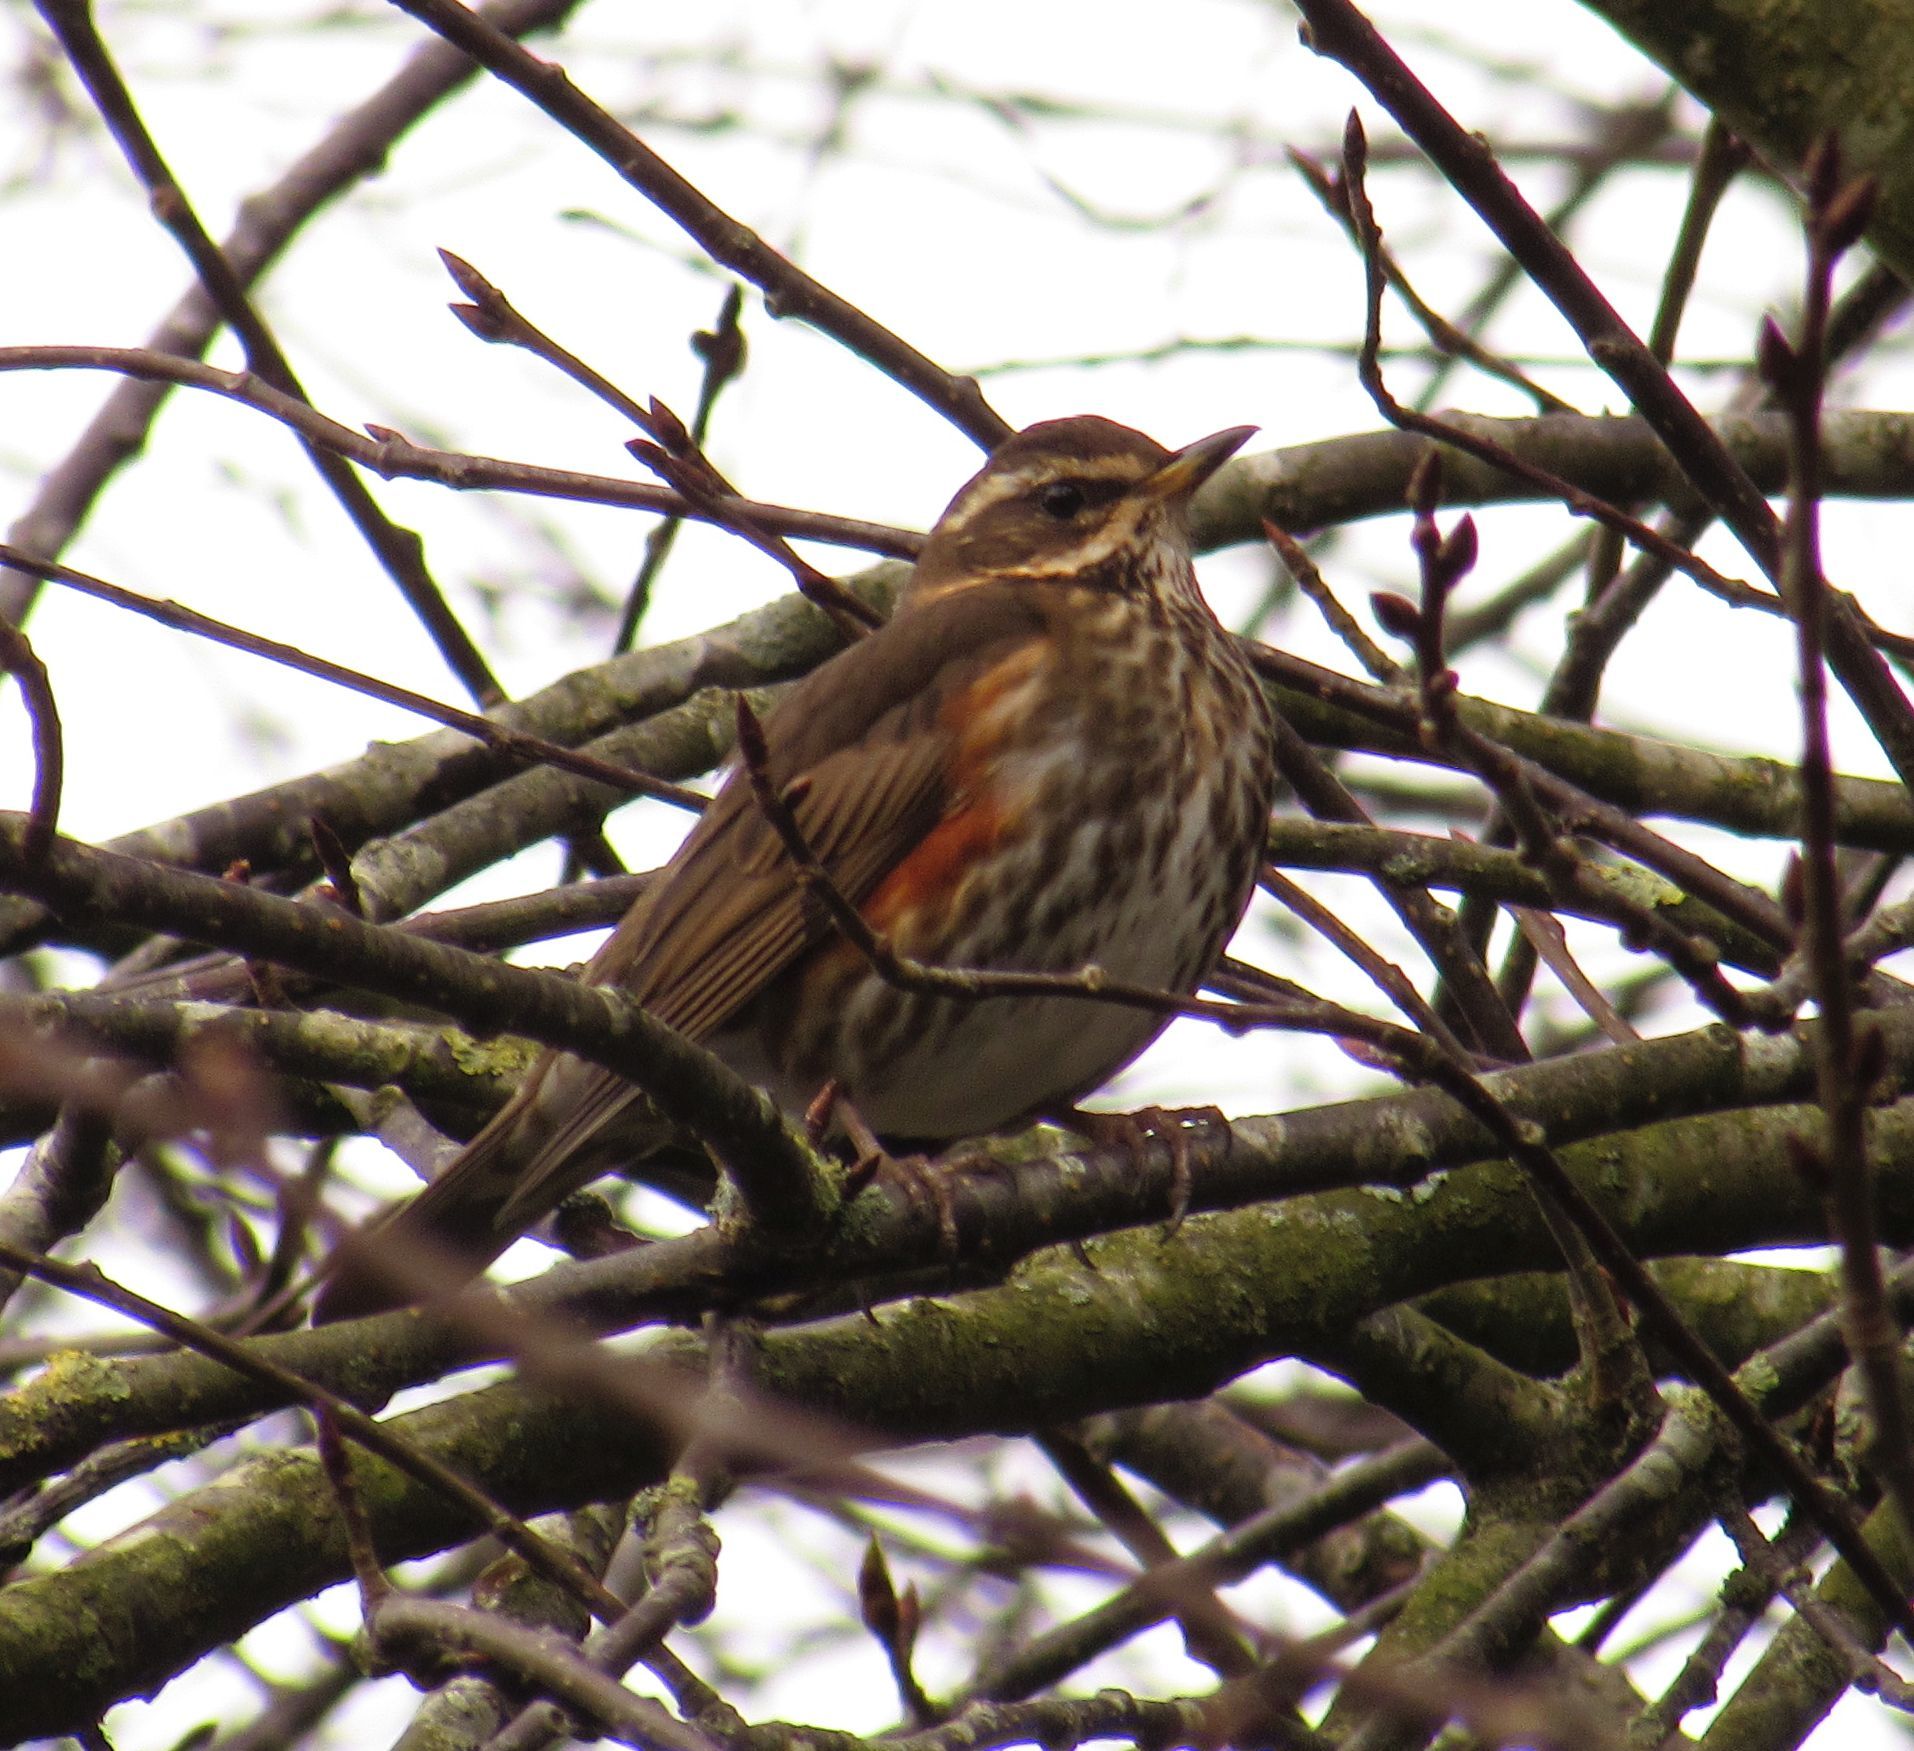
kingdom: Animalia
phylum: Chordata
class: Aves
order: Passeriformes
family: Turdidae
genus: Turdus
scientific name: Turdus iliacus
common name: Redwing
